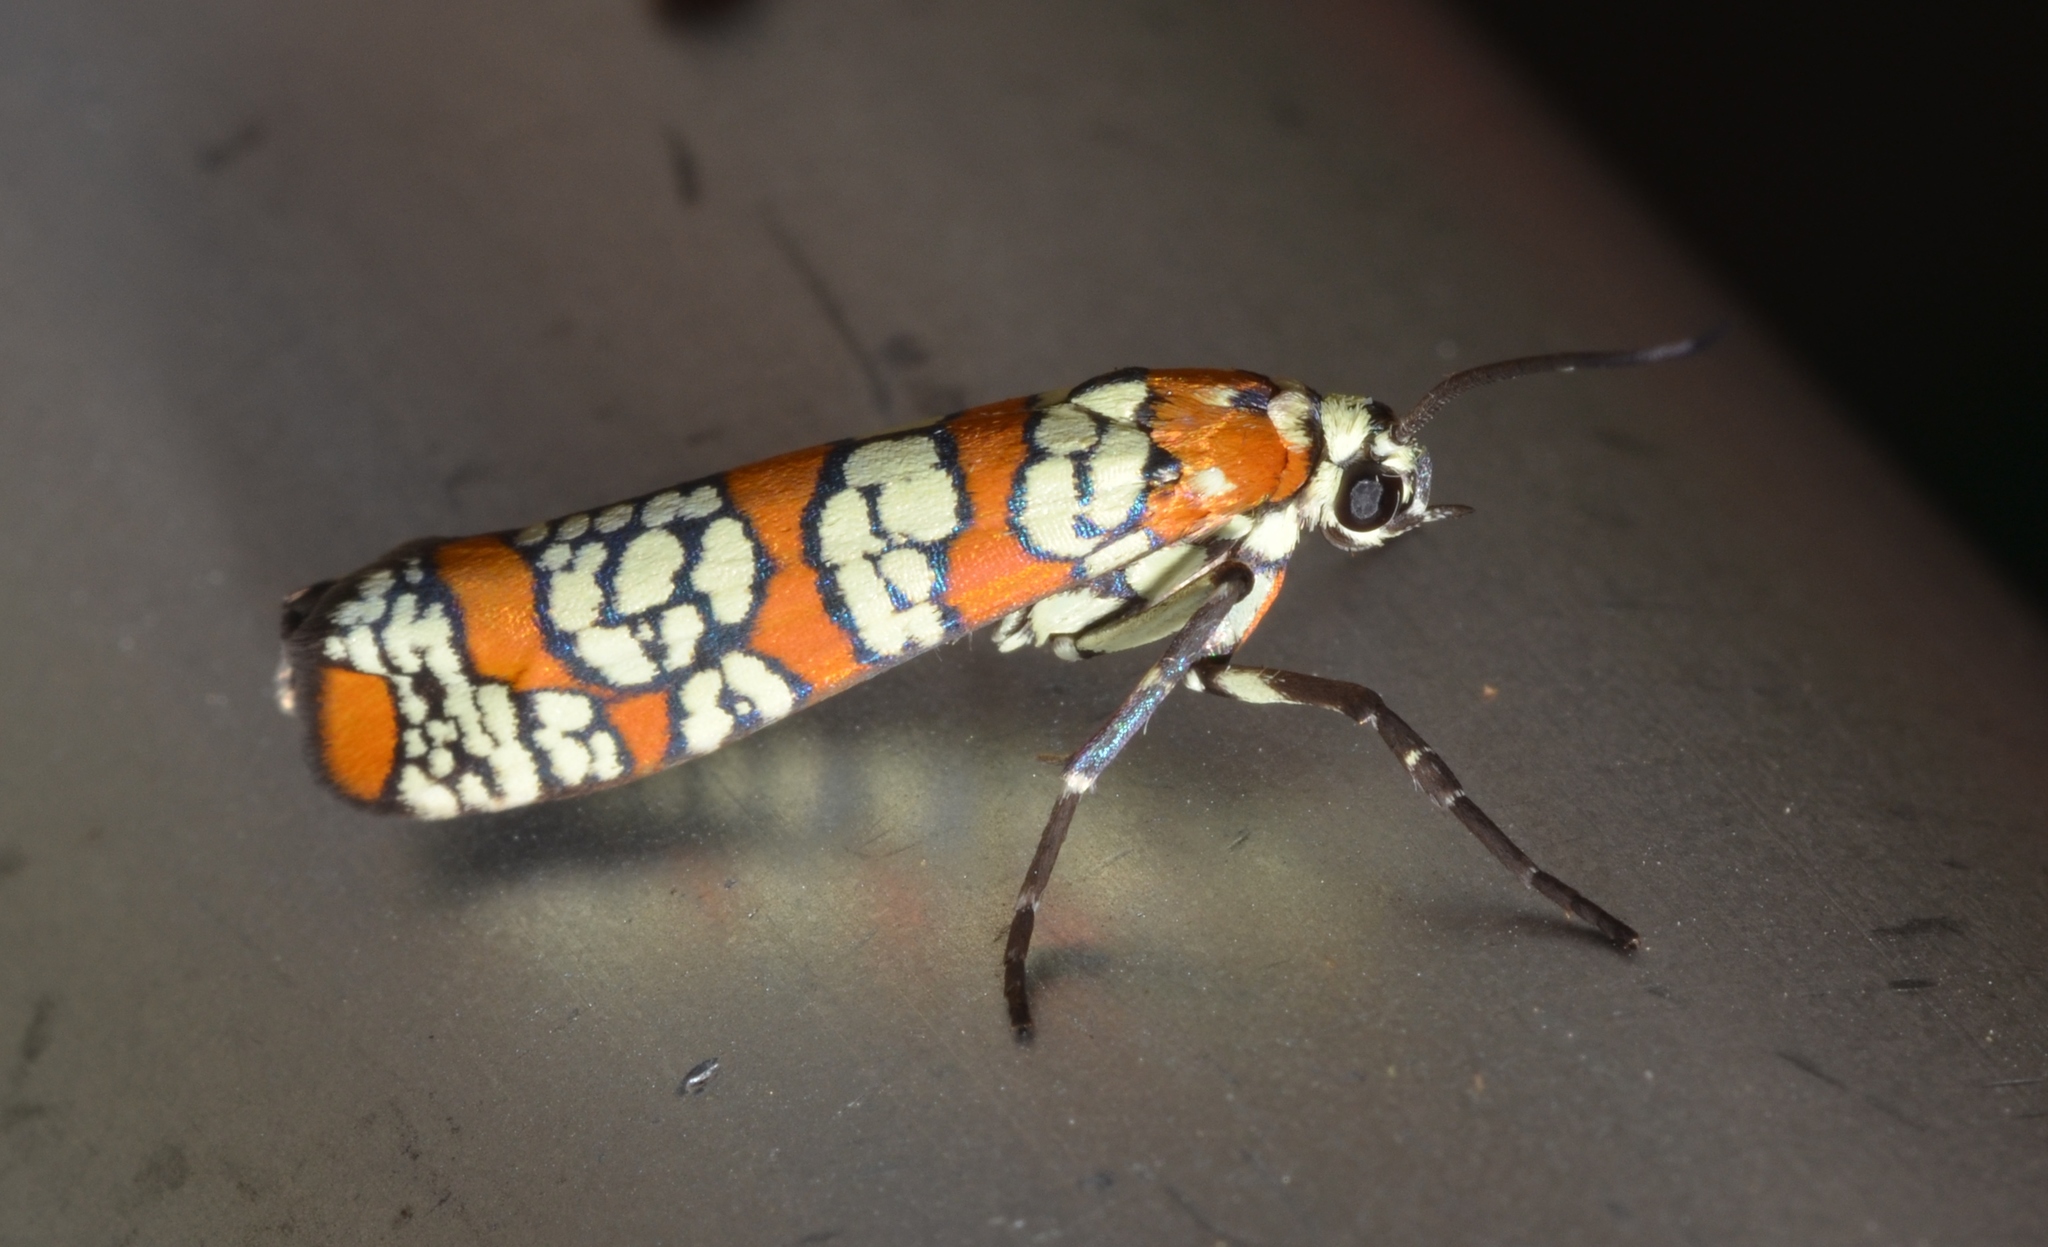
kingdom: Animalia
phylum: Arthropoda
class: Insecta
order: Lepidoptera
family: Attevidae
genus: Atteva
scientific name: Atteva punctella
